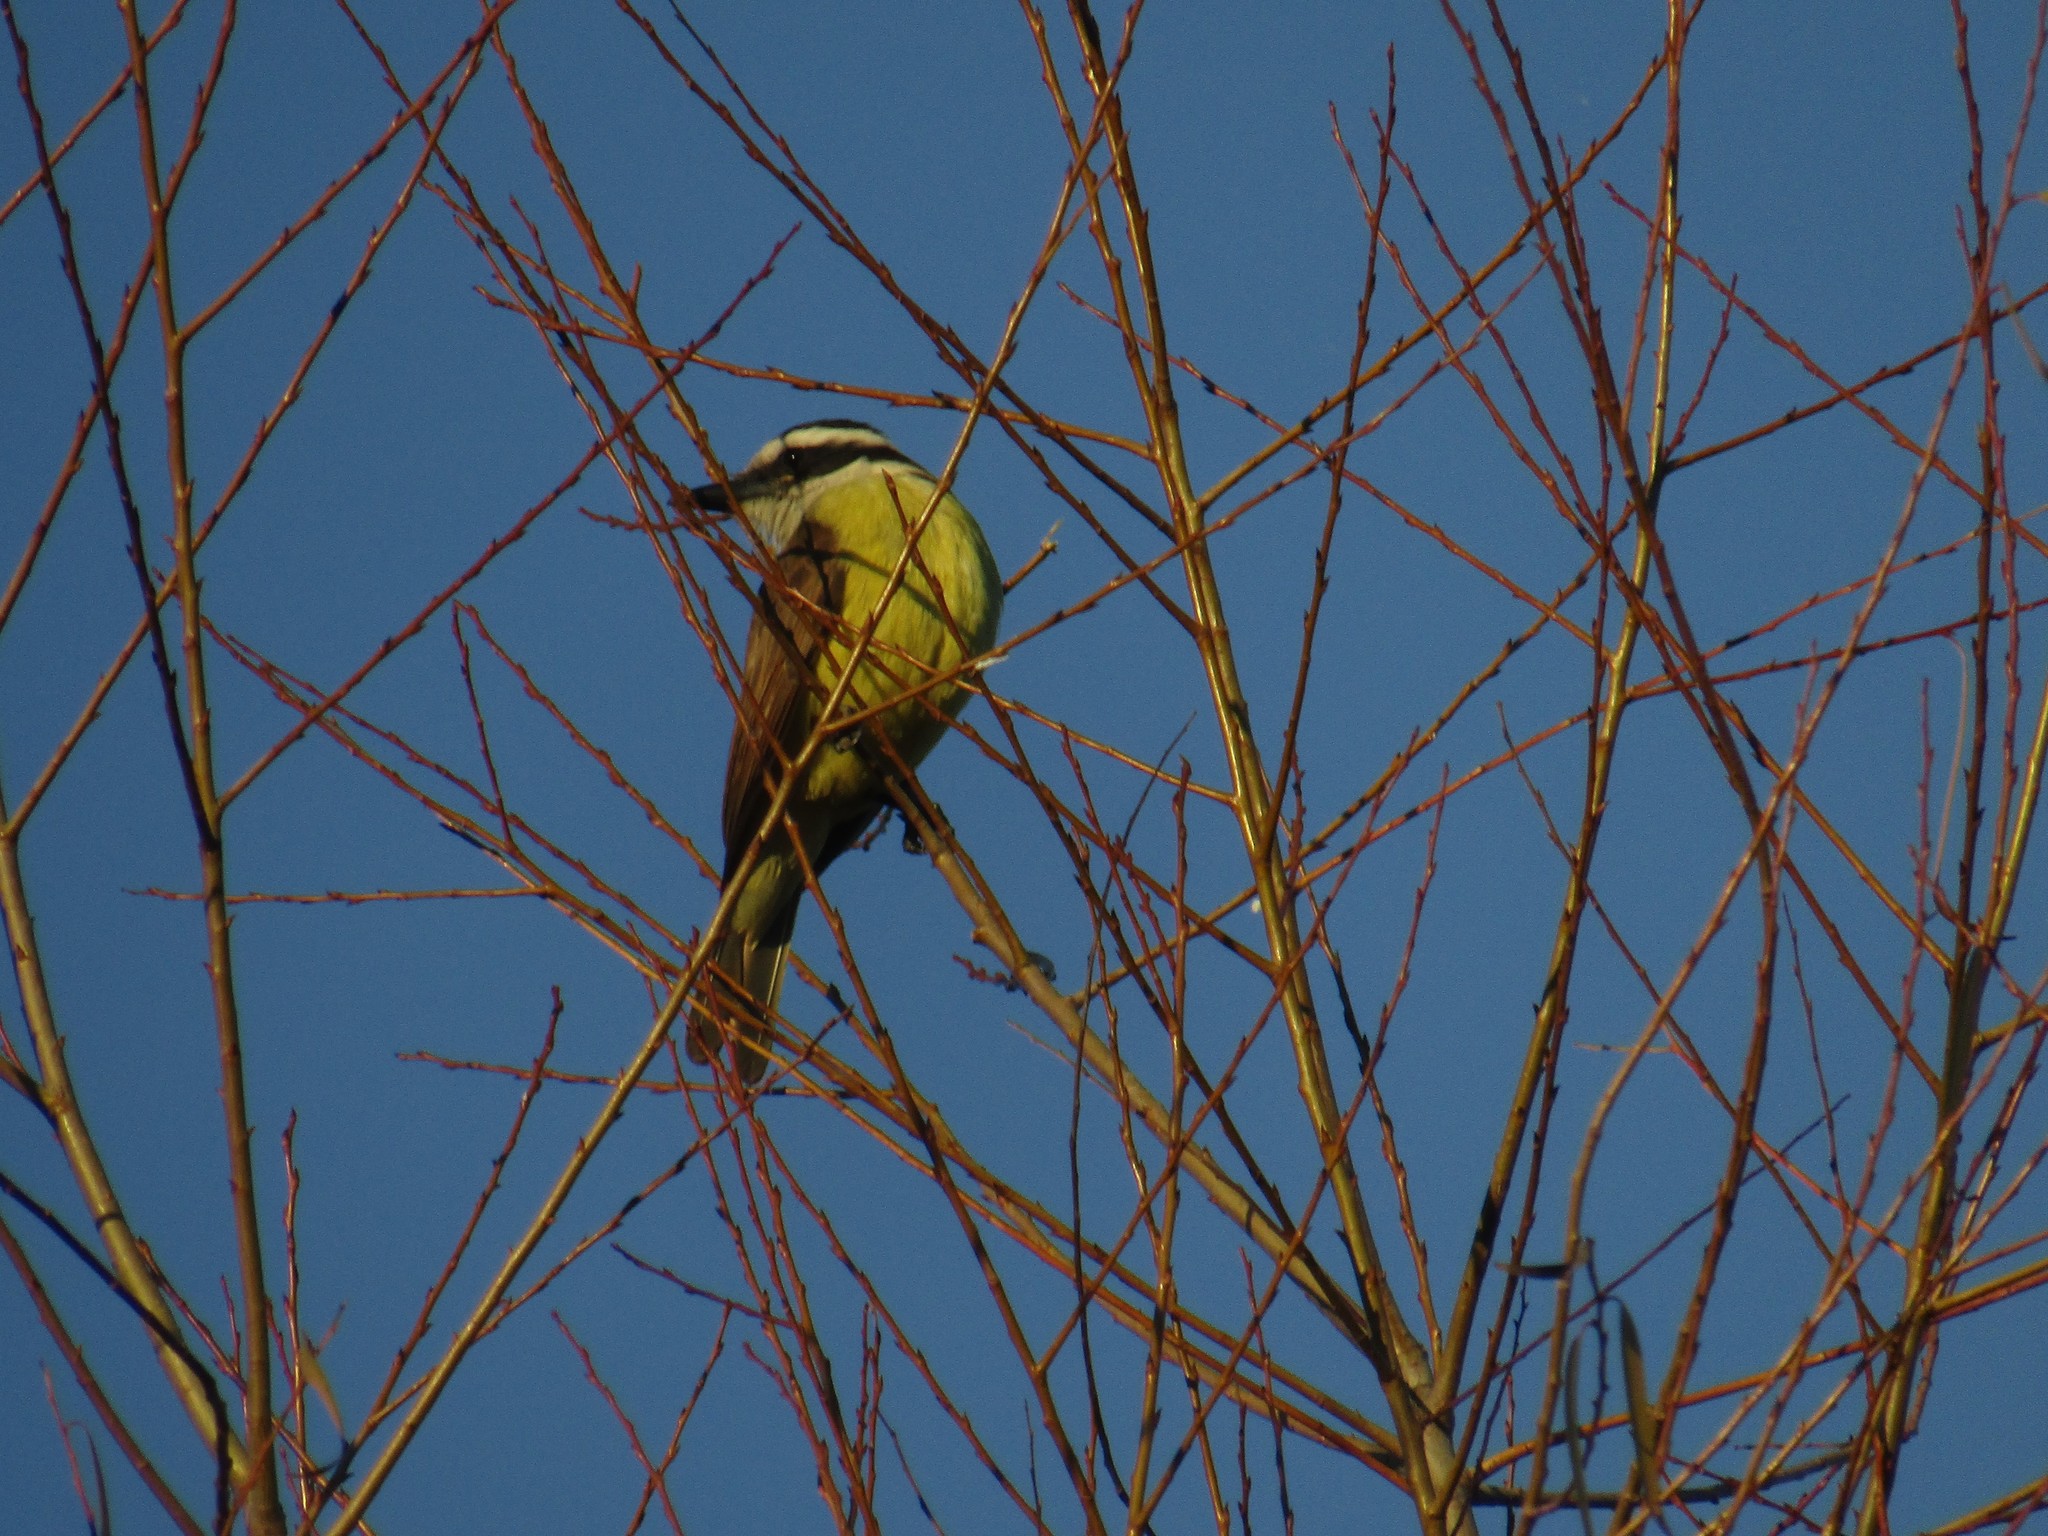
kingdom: Animalia
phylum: Chordata
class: Aves
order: Passeriformes
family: Tyrannidae
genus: Pitangus
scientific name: Pitangus sulphuratus
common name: Great kiskadee
